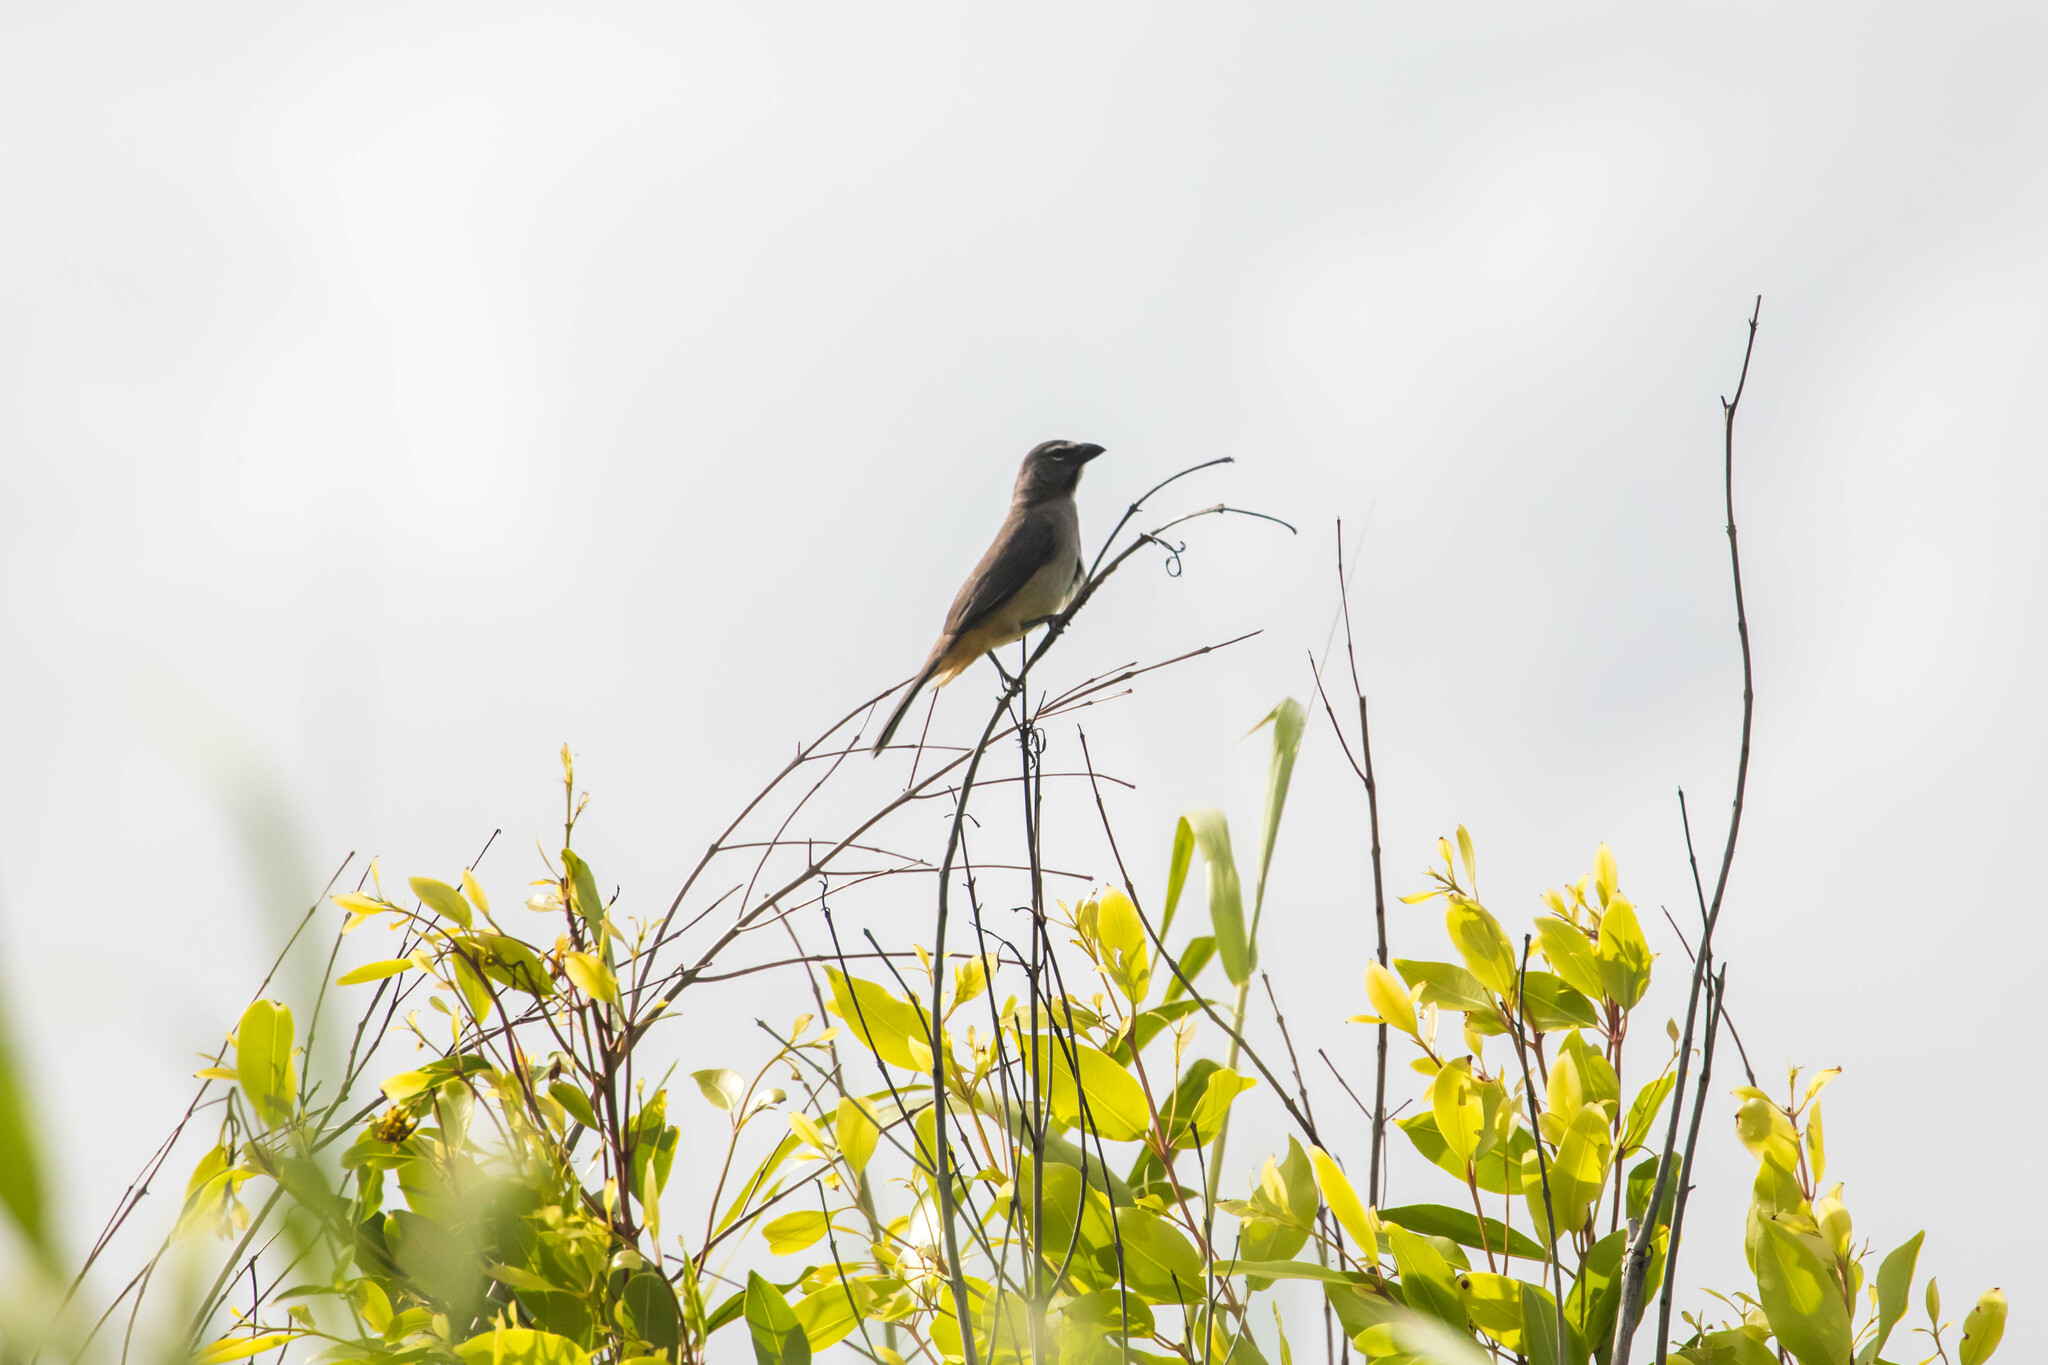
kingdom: Animalia
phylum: Chordata
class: Aves
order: Passeriformes
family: Thraupidae
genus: Saltator
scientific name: Saltator olivascens
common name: Caribbean grey saltator
